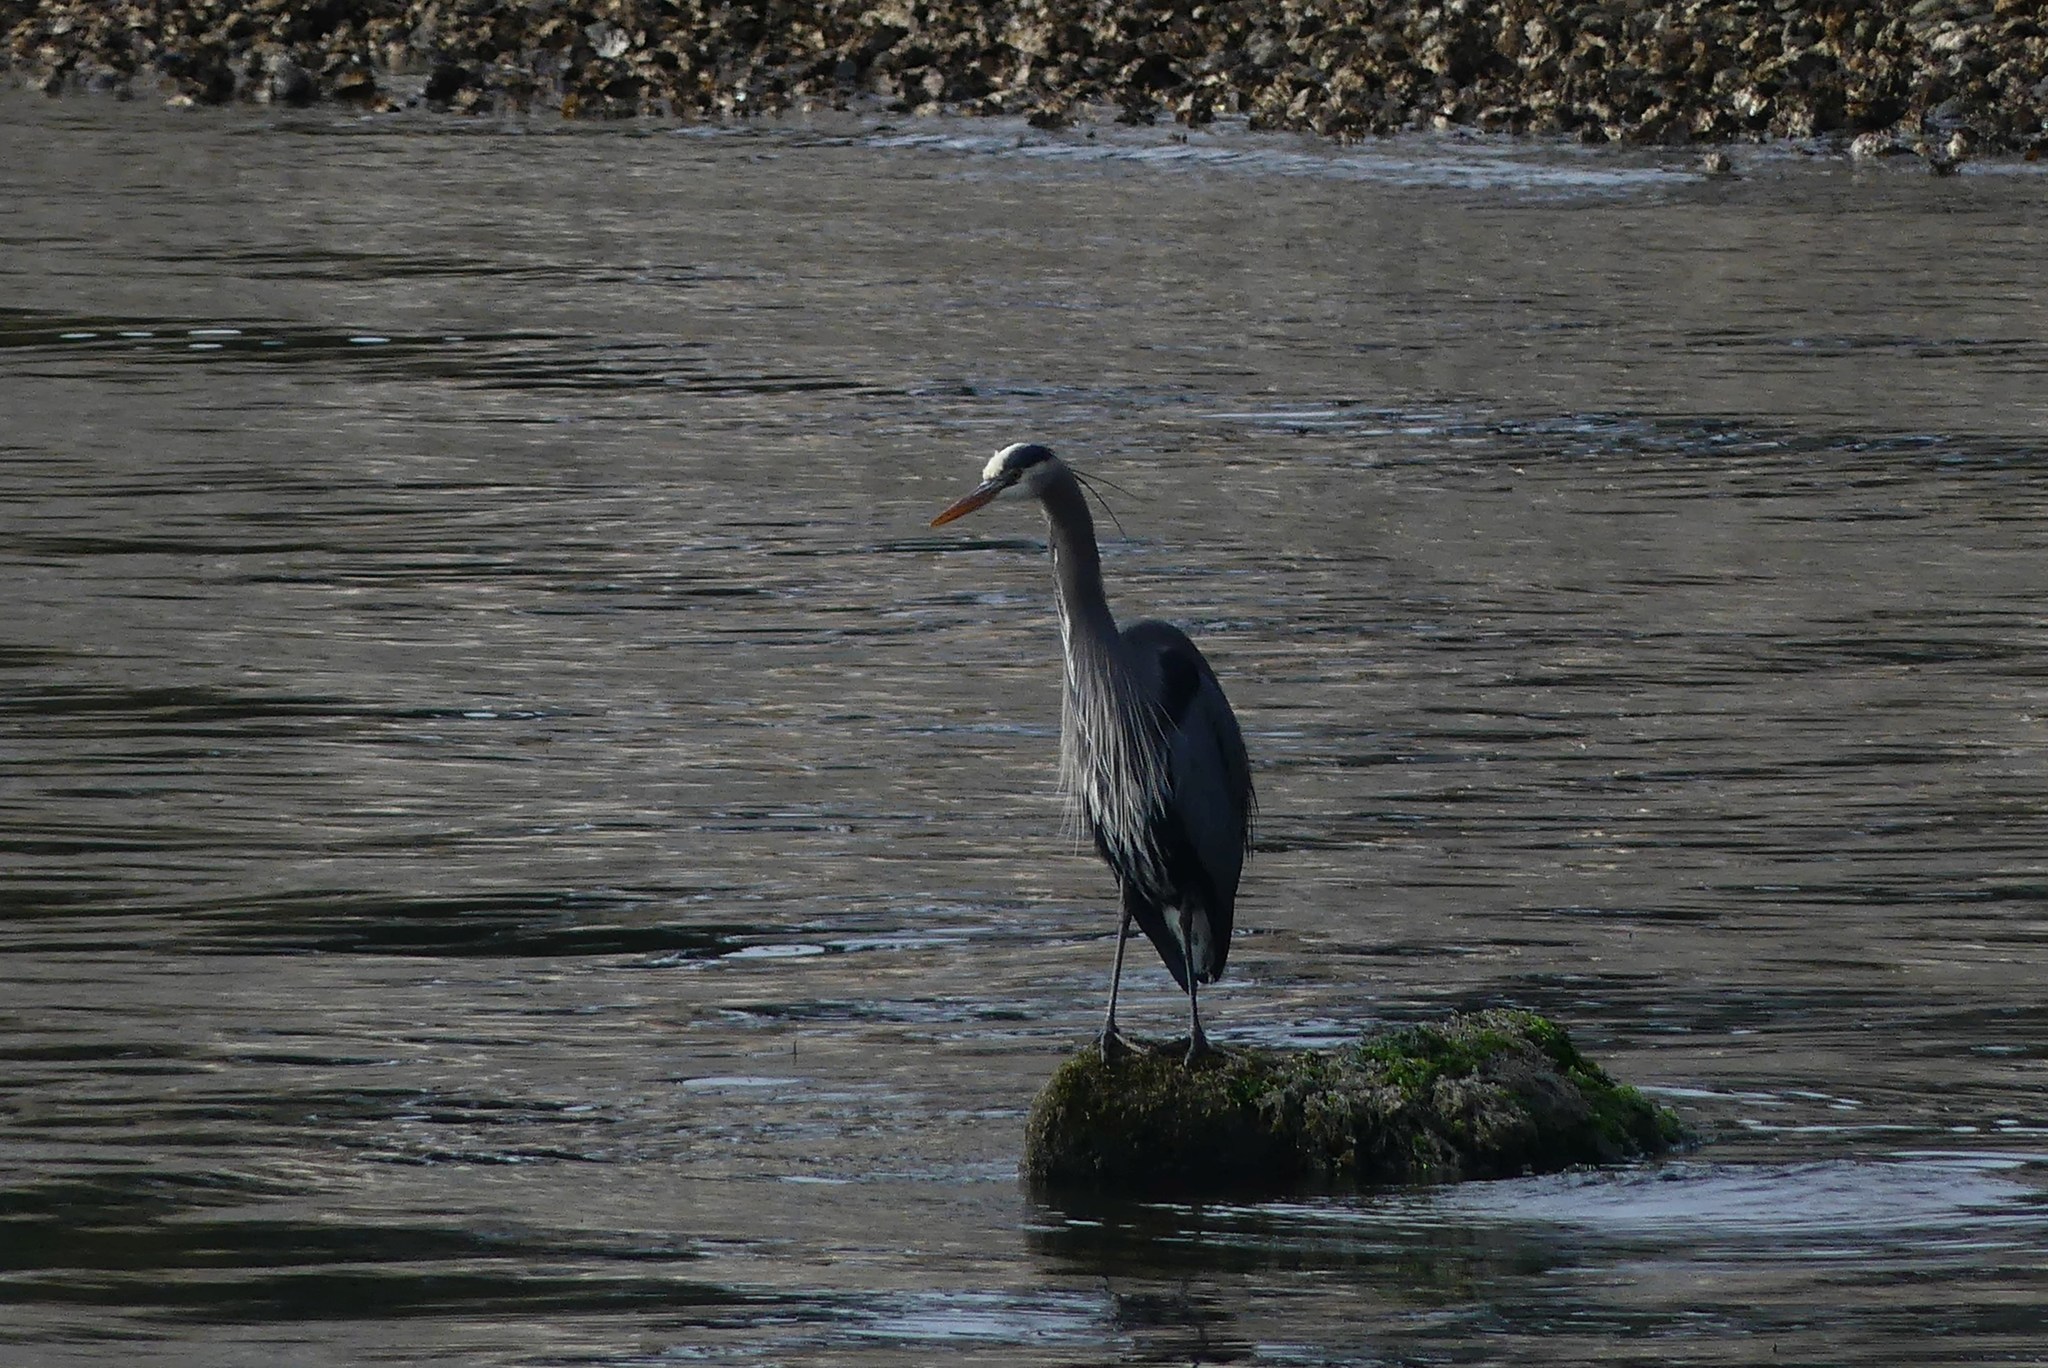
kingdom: Animalia
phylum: Chordata
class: Aves
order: Pelecaniformes
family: Ardeidae
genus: Ardea
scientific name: Ardea herodias
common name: Great blue heron
